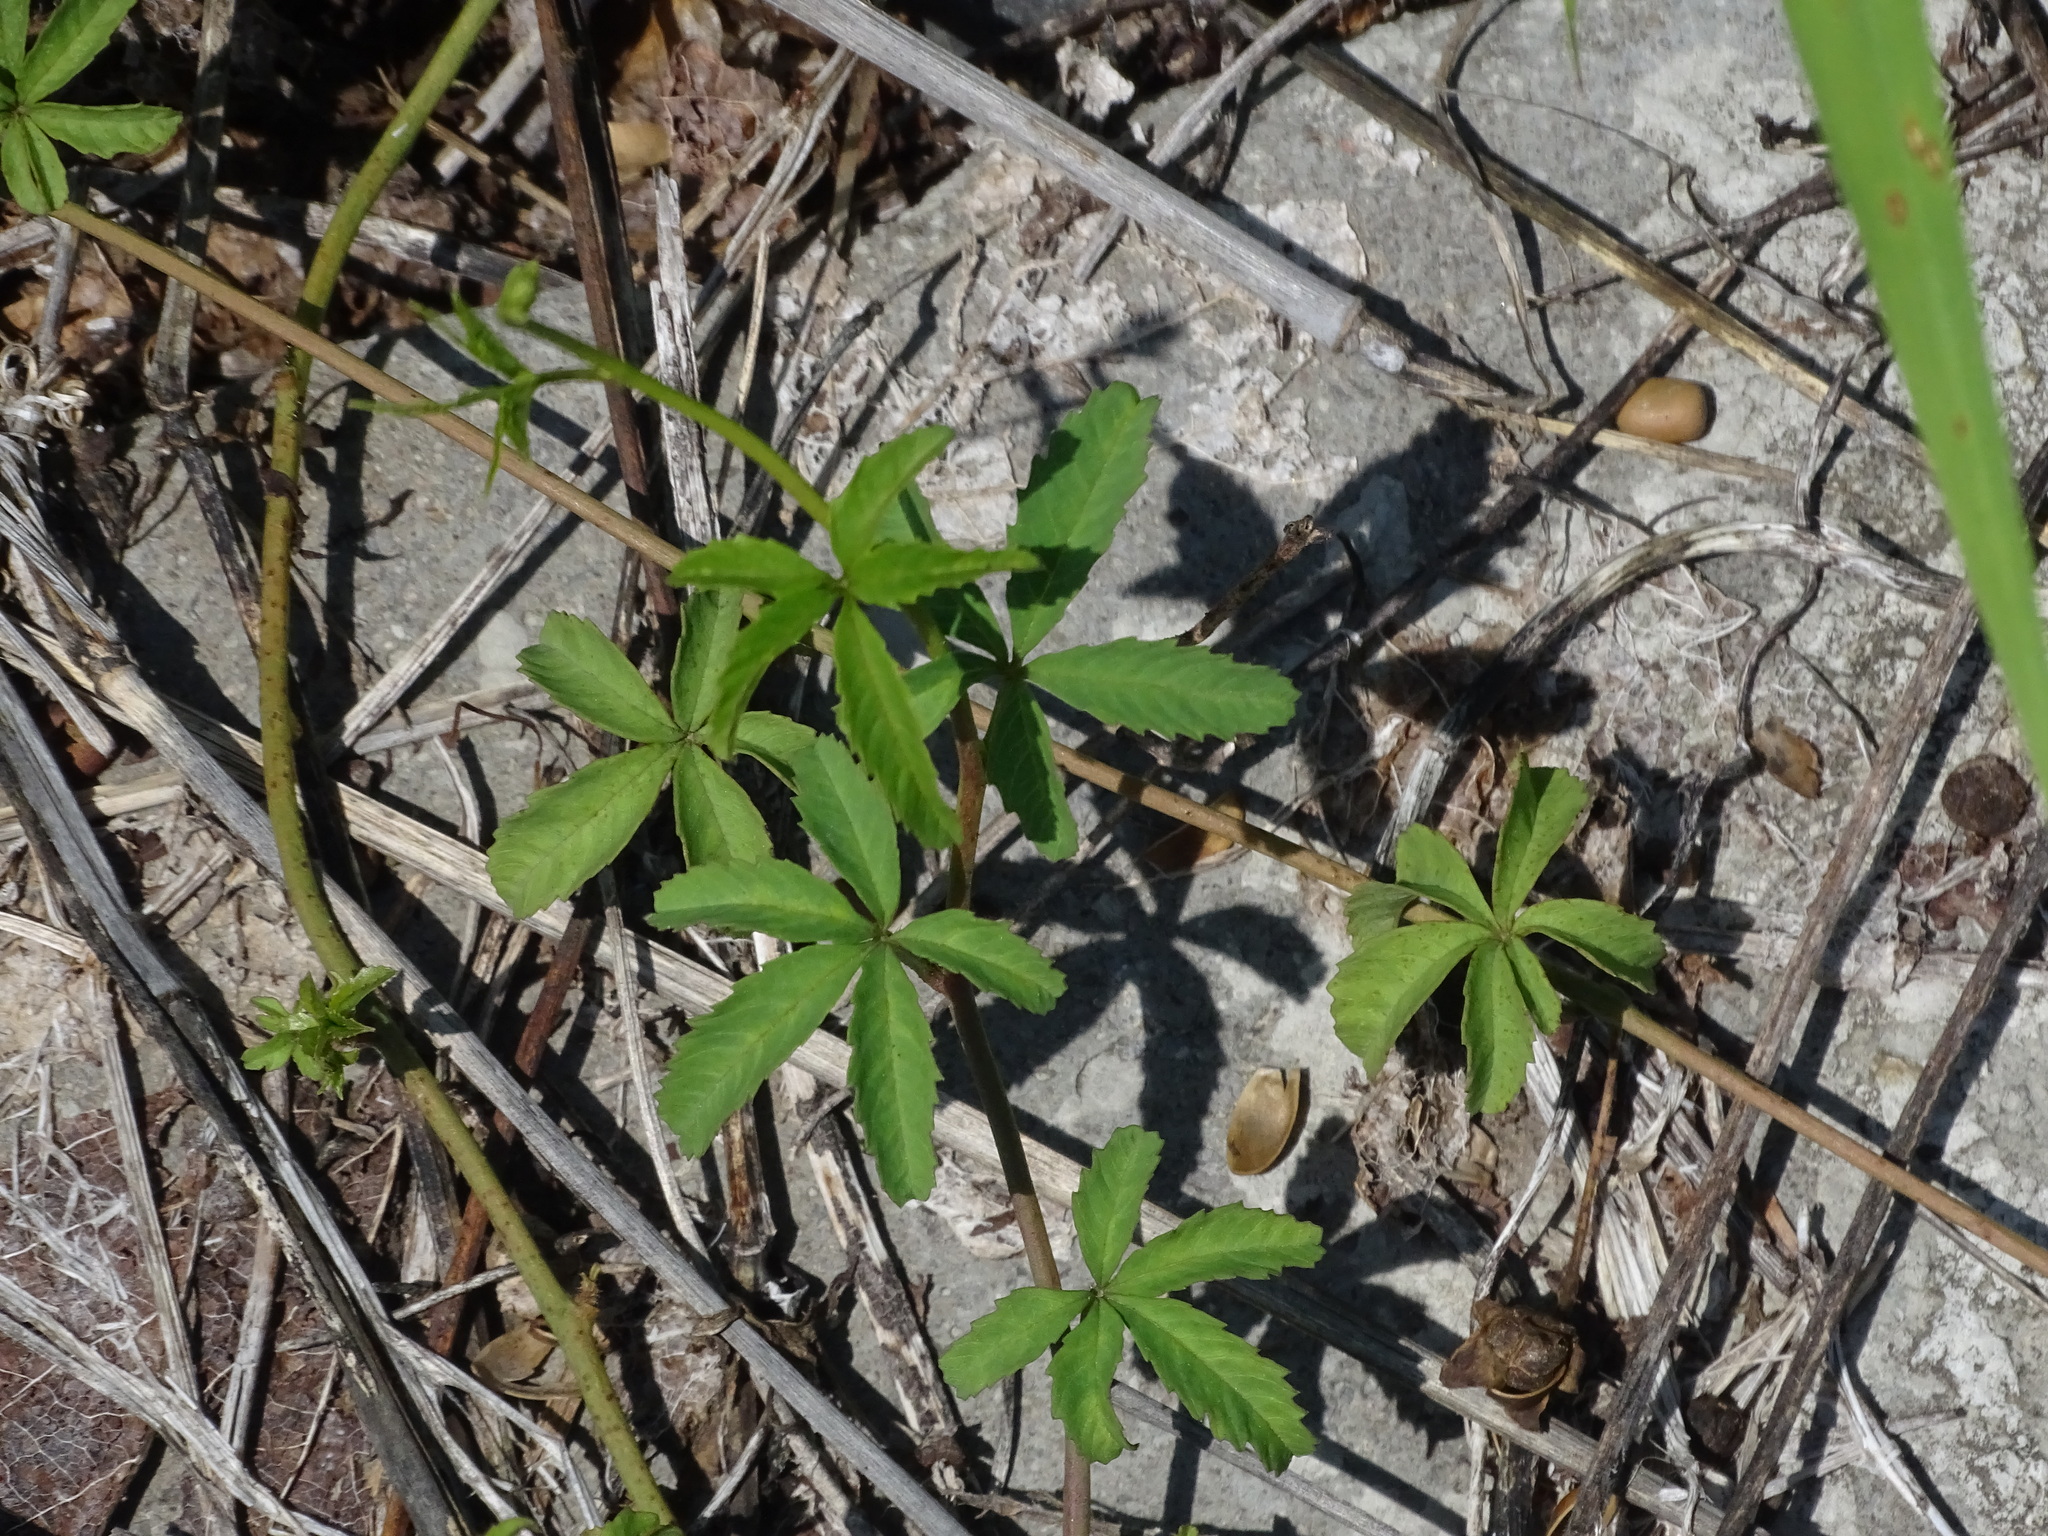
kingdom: Plantae
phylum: Tracheophyta
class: Magnoliopsida
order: Solanales
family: Convolvulaceae
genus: Distimake
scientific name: Distimake quinquefolius
